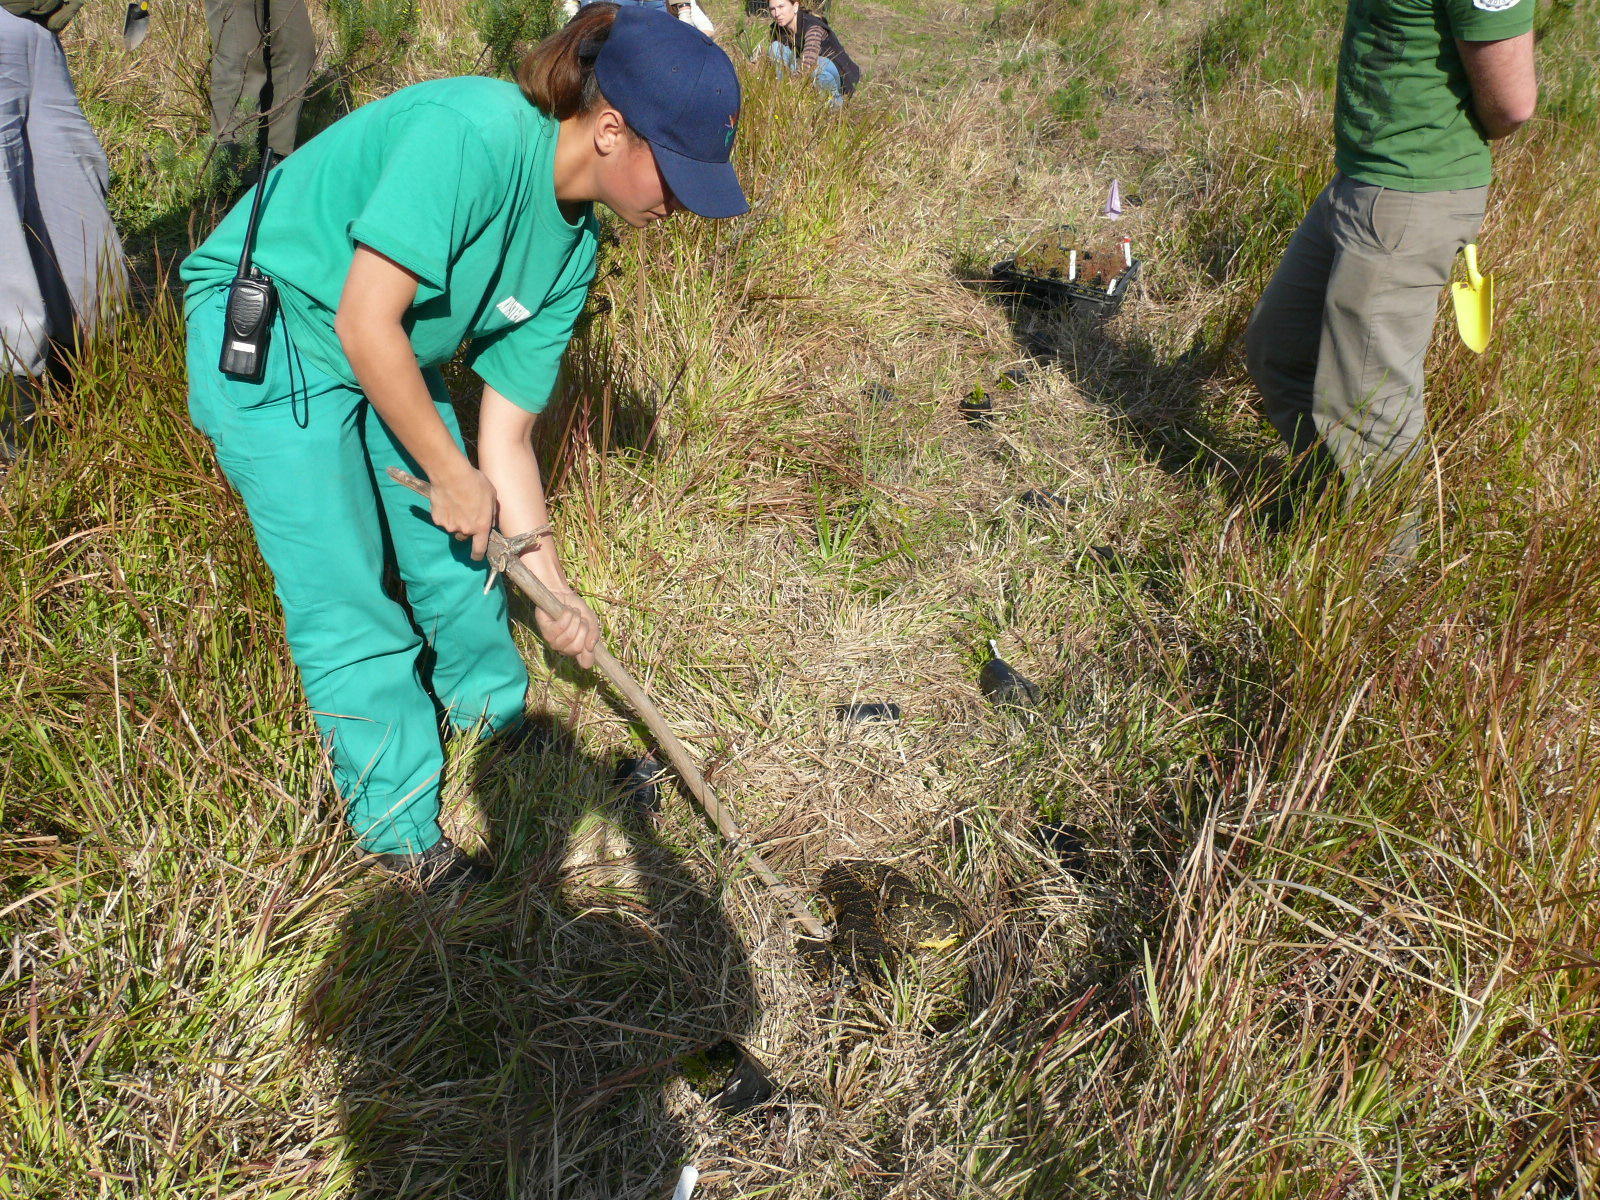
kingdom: Animalia
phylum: Chordata
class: Squamata
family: Viperidae
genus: Bitis
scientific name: Bitis arietans
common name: Puff adder
